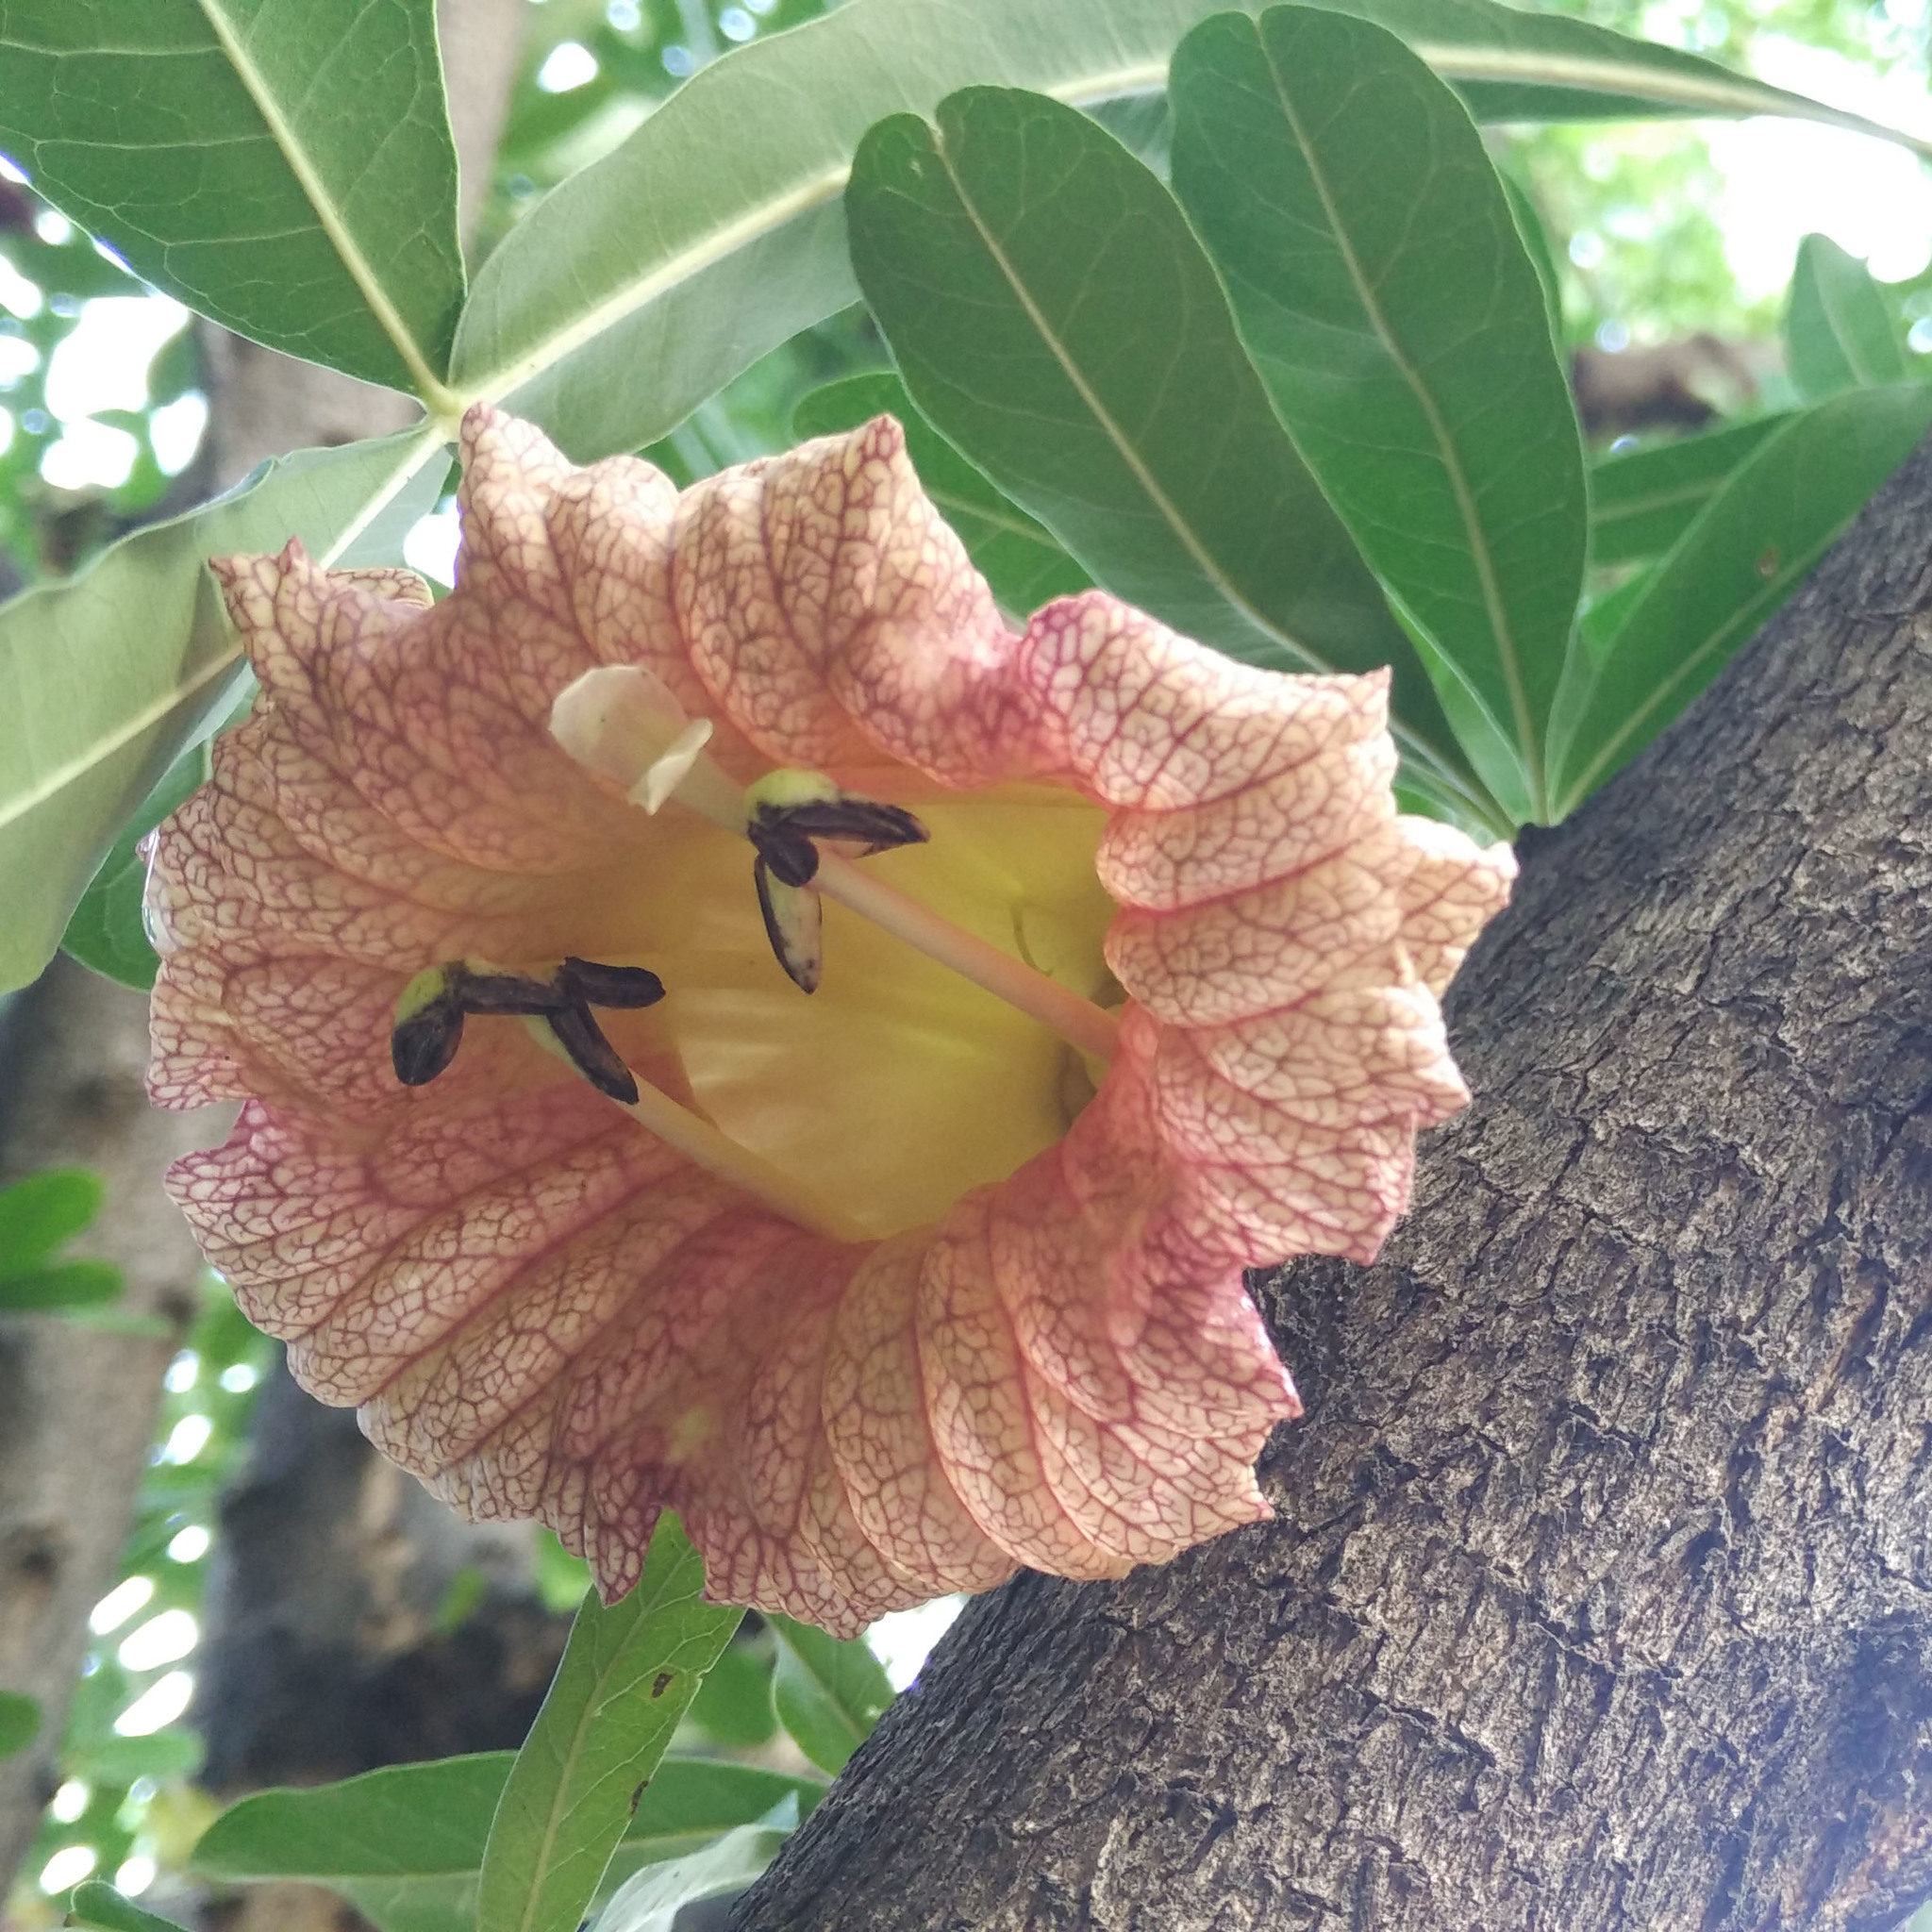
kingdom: Plantae
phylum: Tracheophyta
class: Magnoliopsida
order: Lamiales
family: Bignoniaceae
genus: Crescentia
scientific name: Crescentia alata
